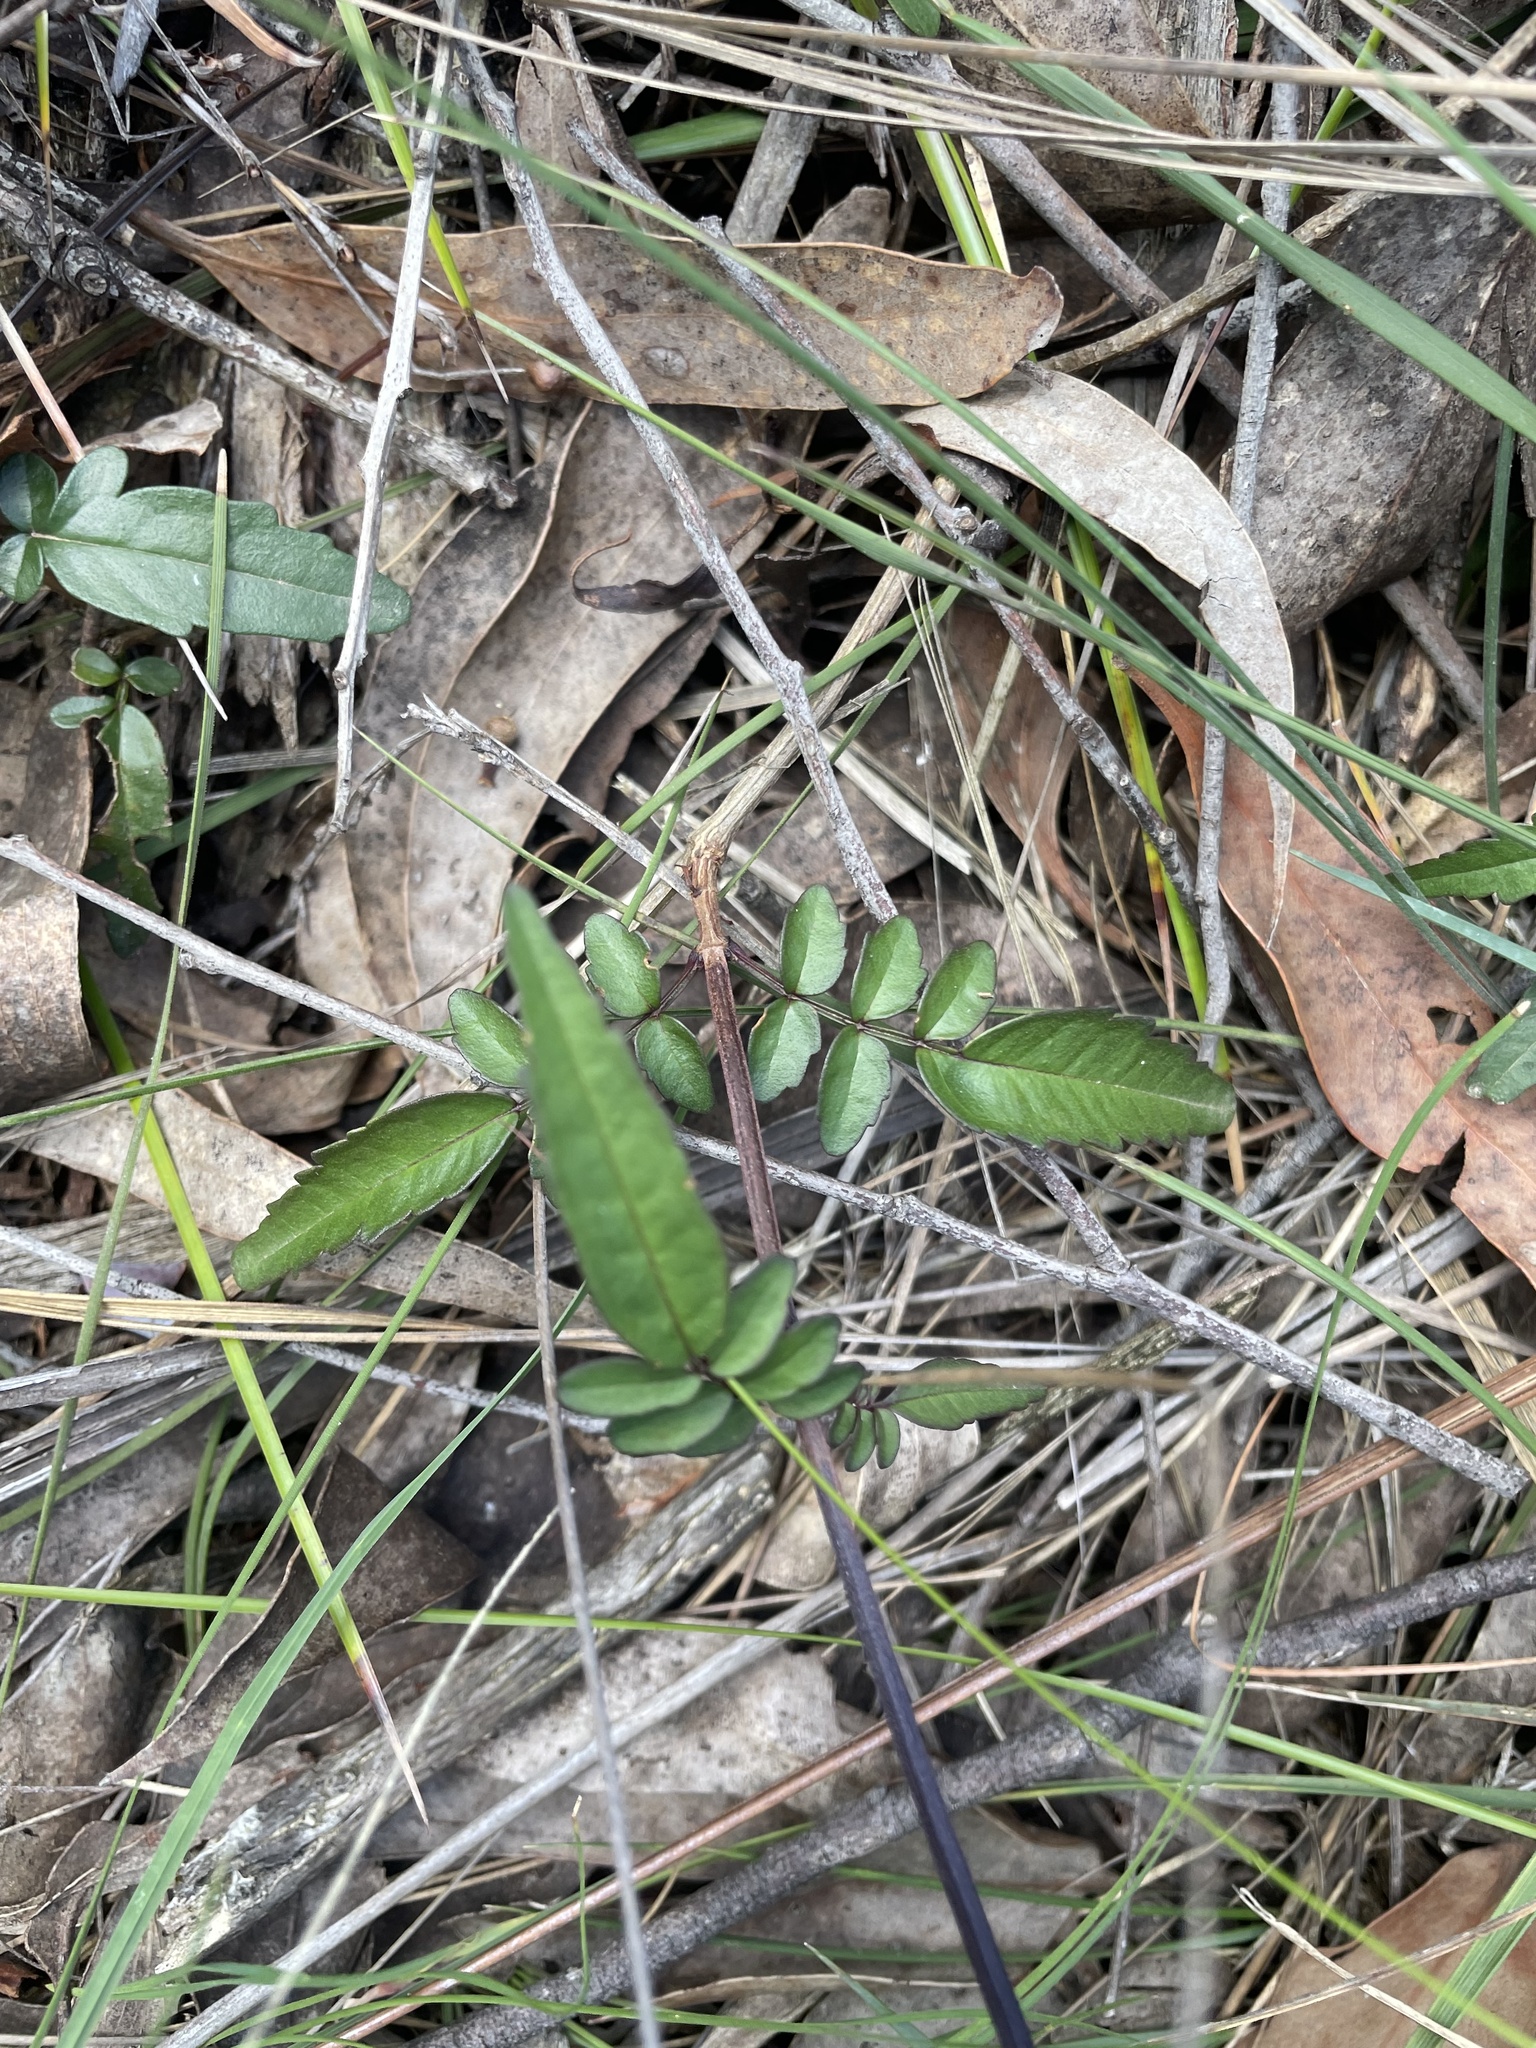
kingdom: Plantae
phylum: Tracheophyta
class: Magnoliopsida
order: Lamiales
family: Bignoniaceae
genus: Pandorea
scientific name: Pandorea pandorana
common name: Wonga-wonga-vine
